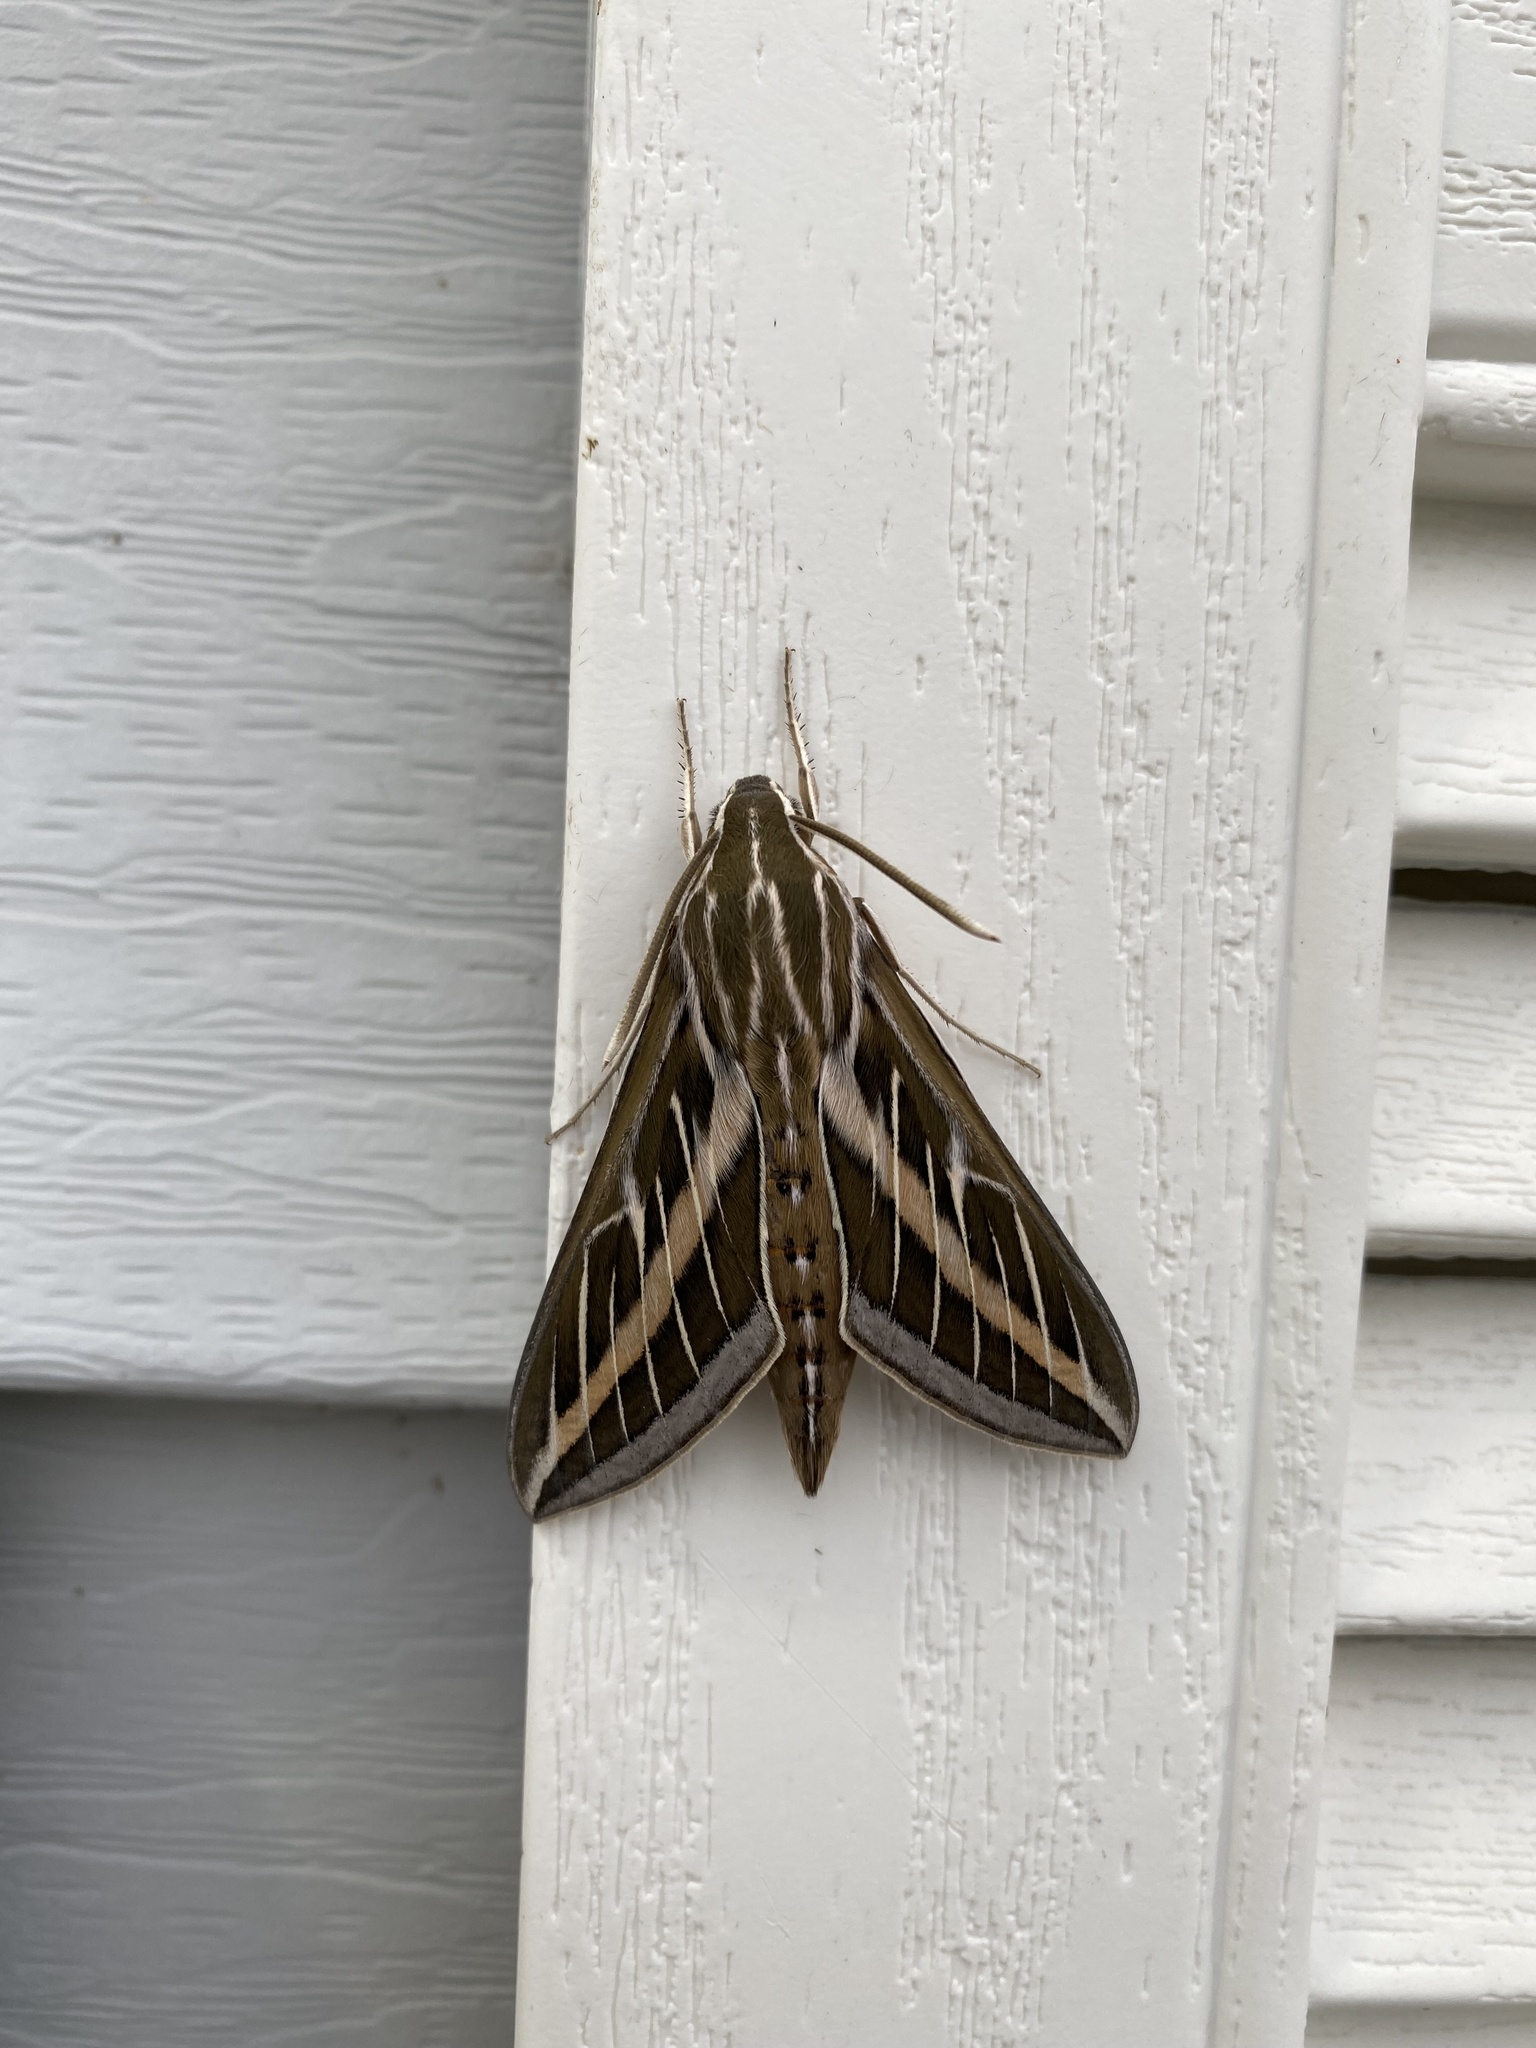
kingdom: Animalia
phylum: Arthropoda
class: Insecta
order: Lepidoptera
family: Sphingidae
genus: Hyles
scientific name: Hyles lineata
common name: White-lined sphinx
